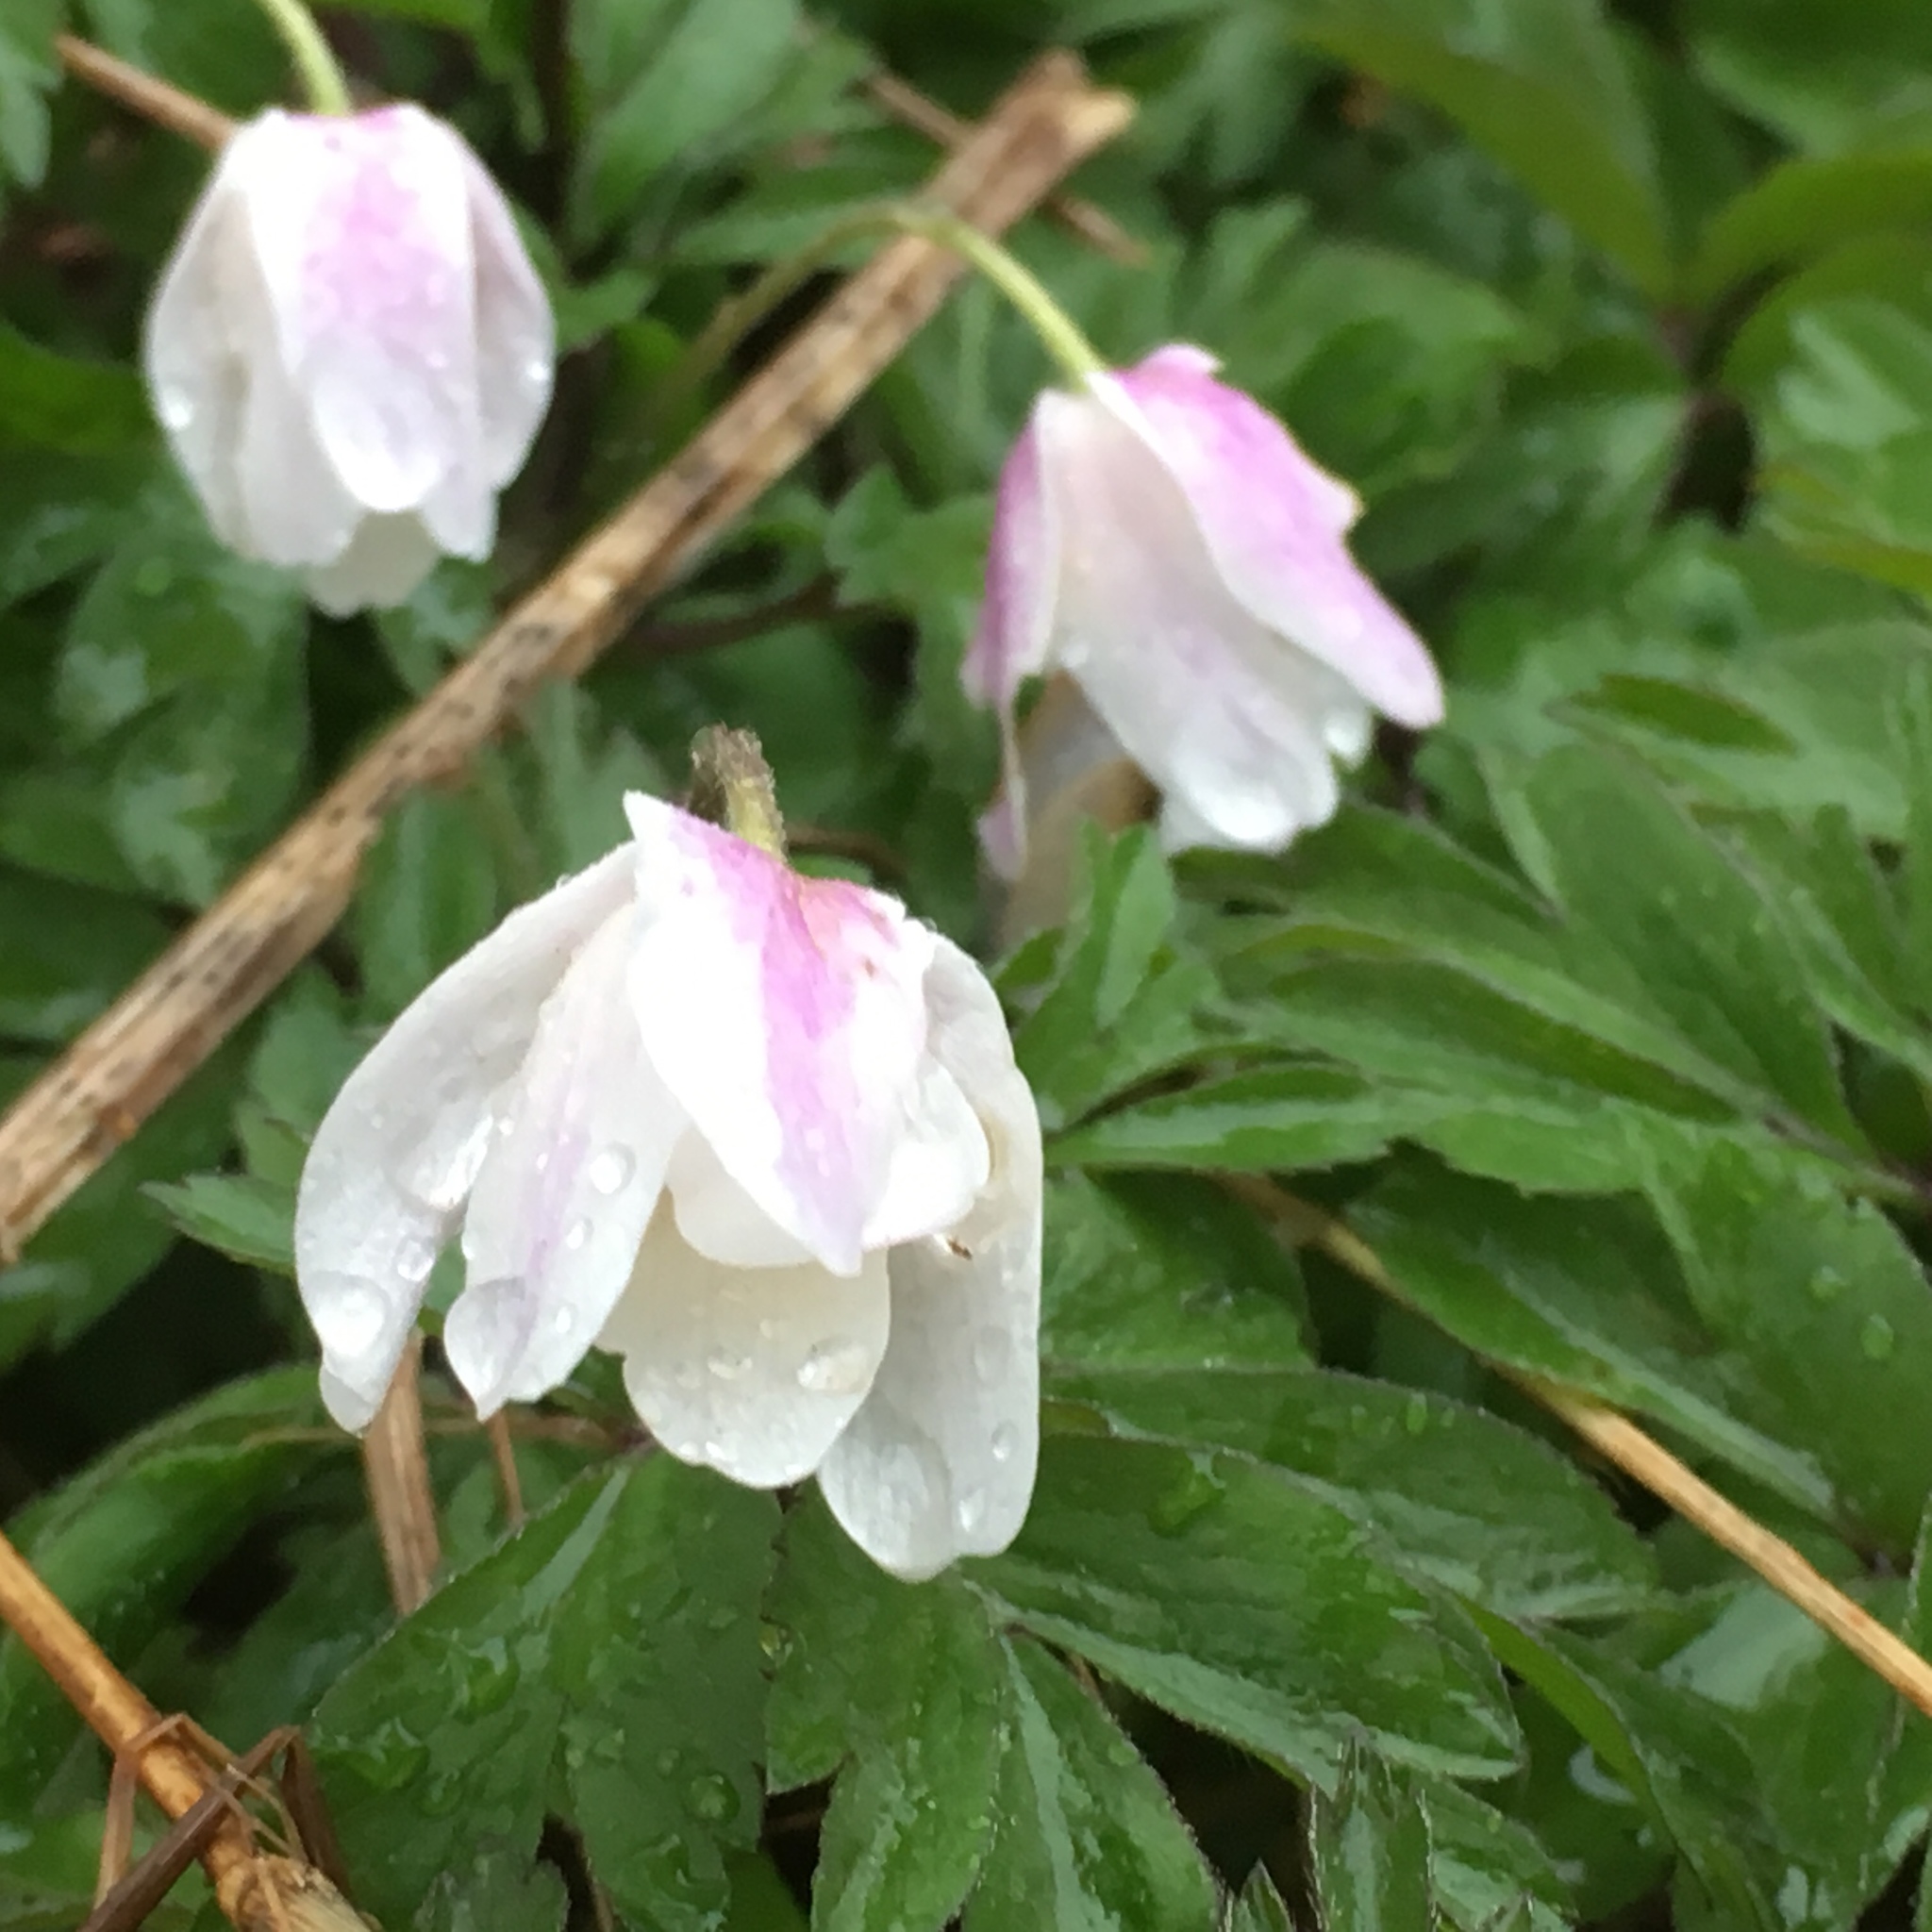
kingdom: Plantae
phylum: Tracheophyta
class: Magnoliopsida
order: Ranunculales
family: Ranunculaceae
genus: Anemone
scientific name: Anemone nemorosa
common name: Wood anemone
